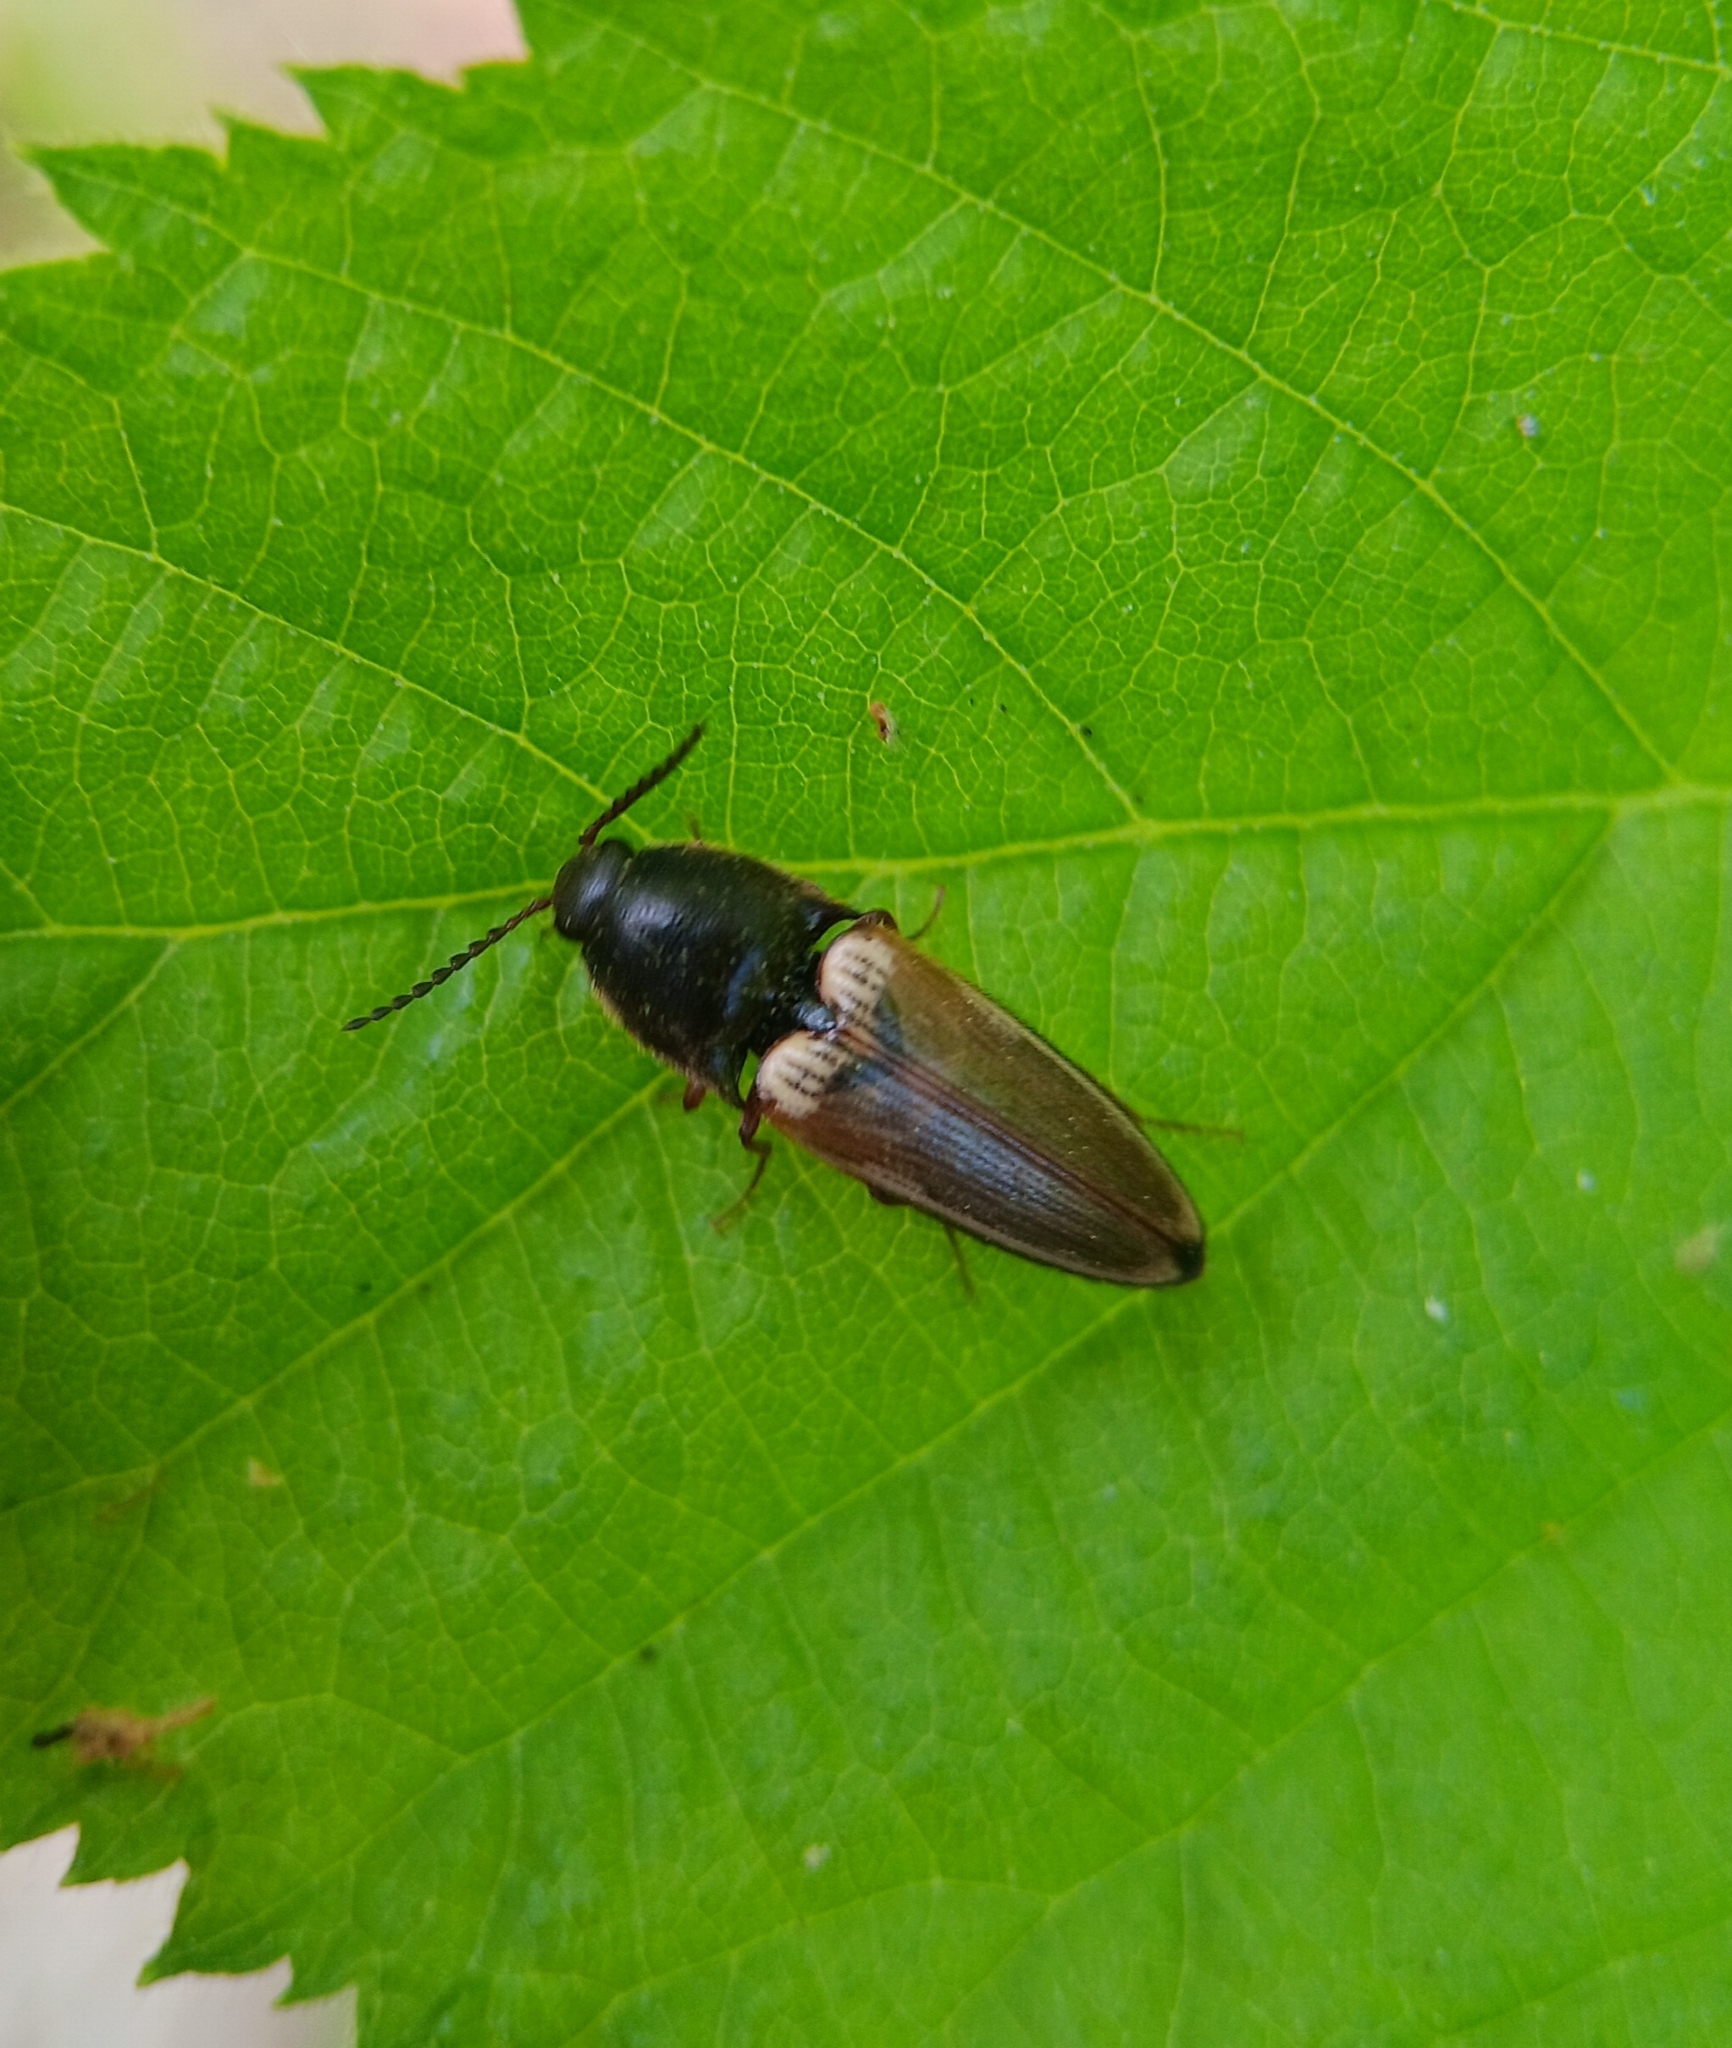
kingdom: Animalia
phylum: Arthropoda
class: Insecta
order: Coleoptera
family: Elateridae
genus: Ampedus
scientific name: Ampedus nigricollis
